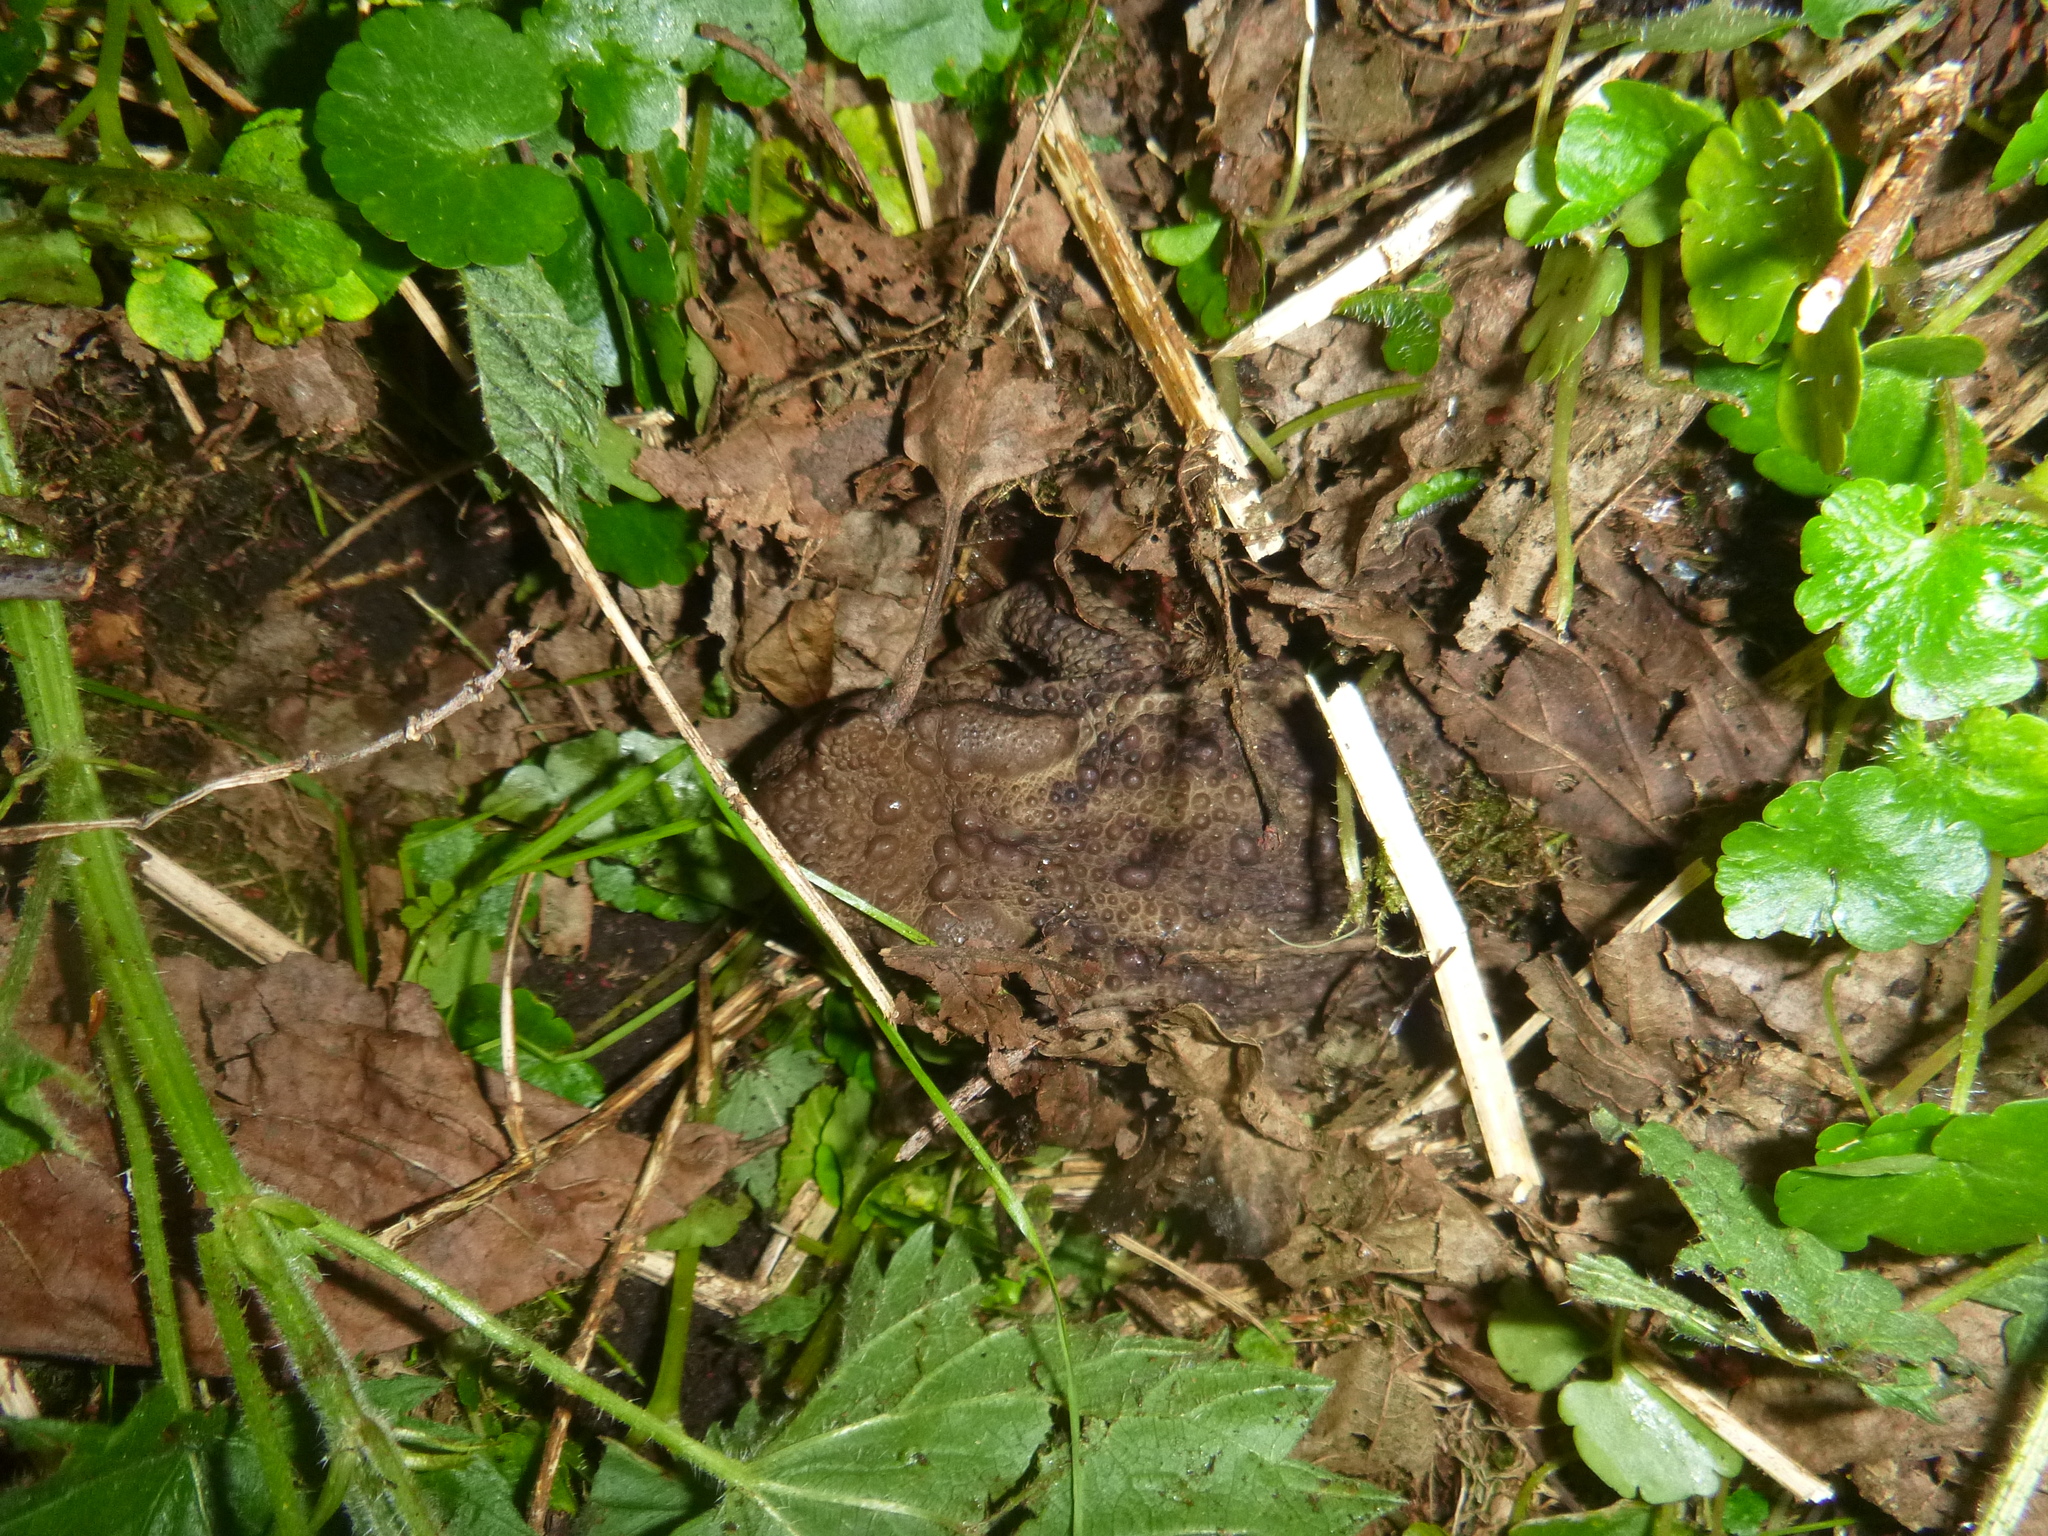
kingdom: Animalia
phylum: Chordata
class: Amphibia
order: Anura
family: Bufonidae
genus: Bufo
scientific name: Bufo bufo
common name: Common toad
